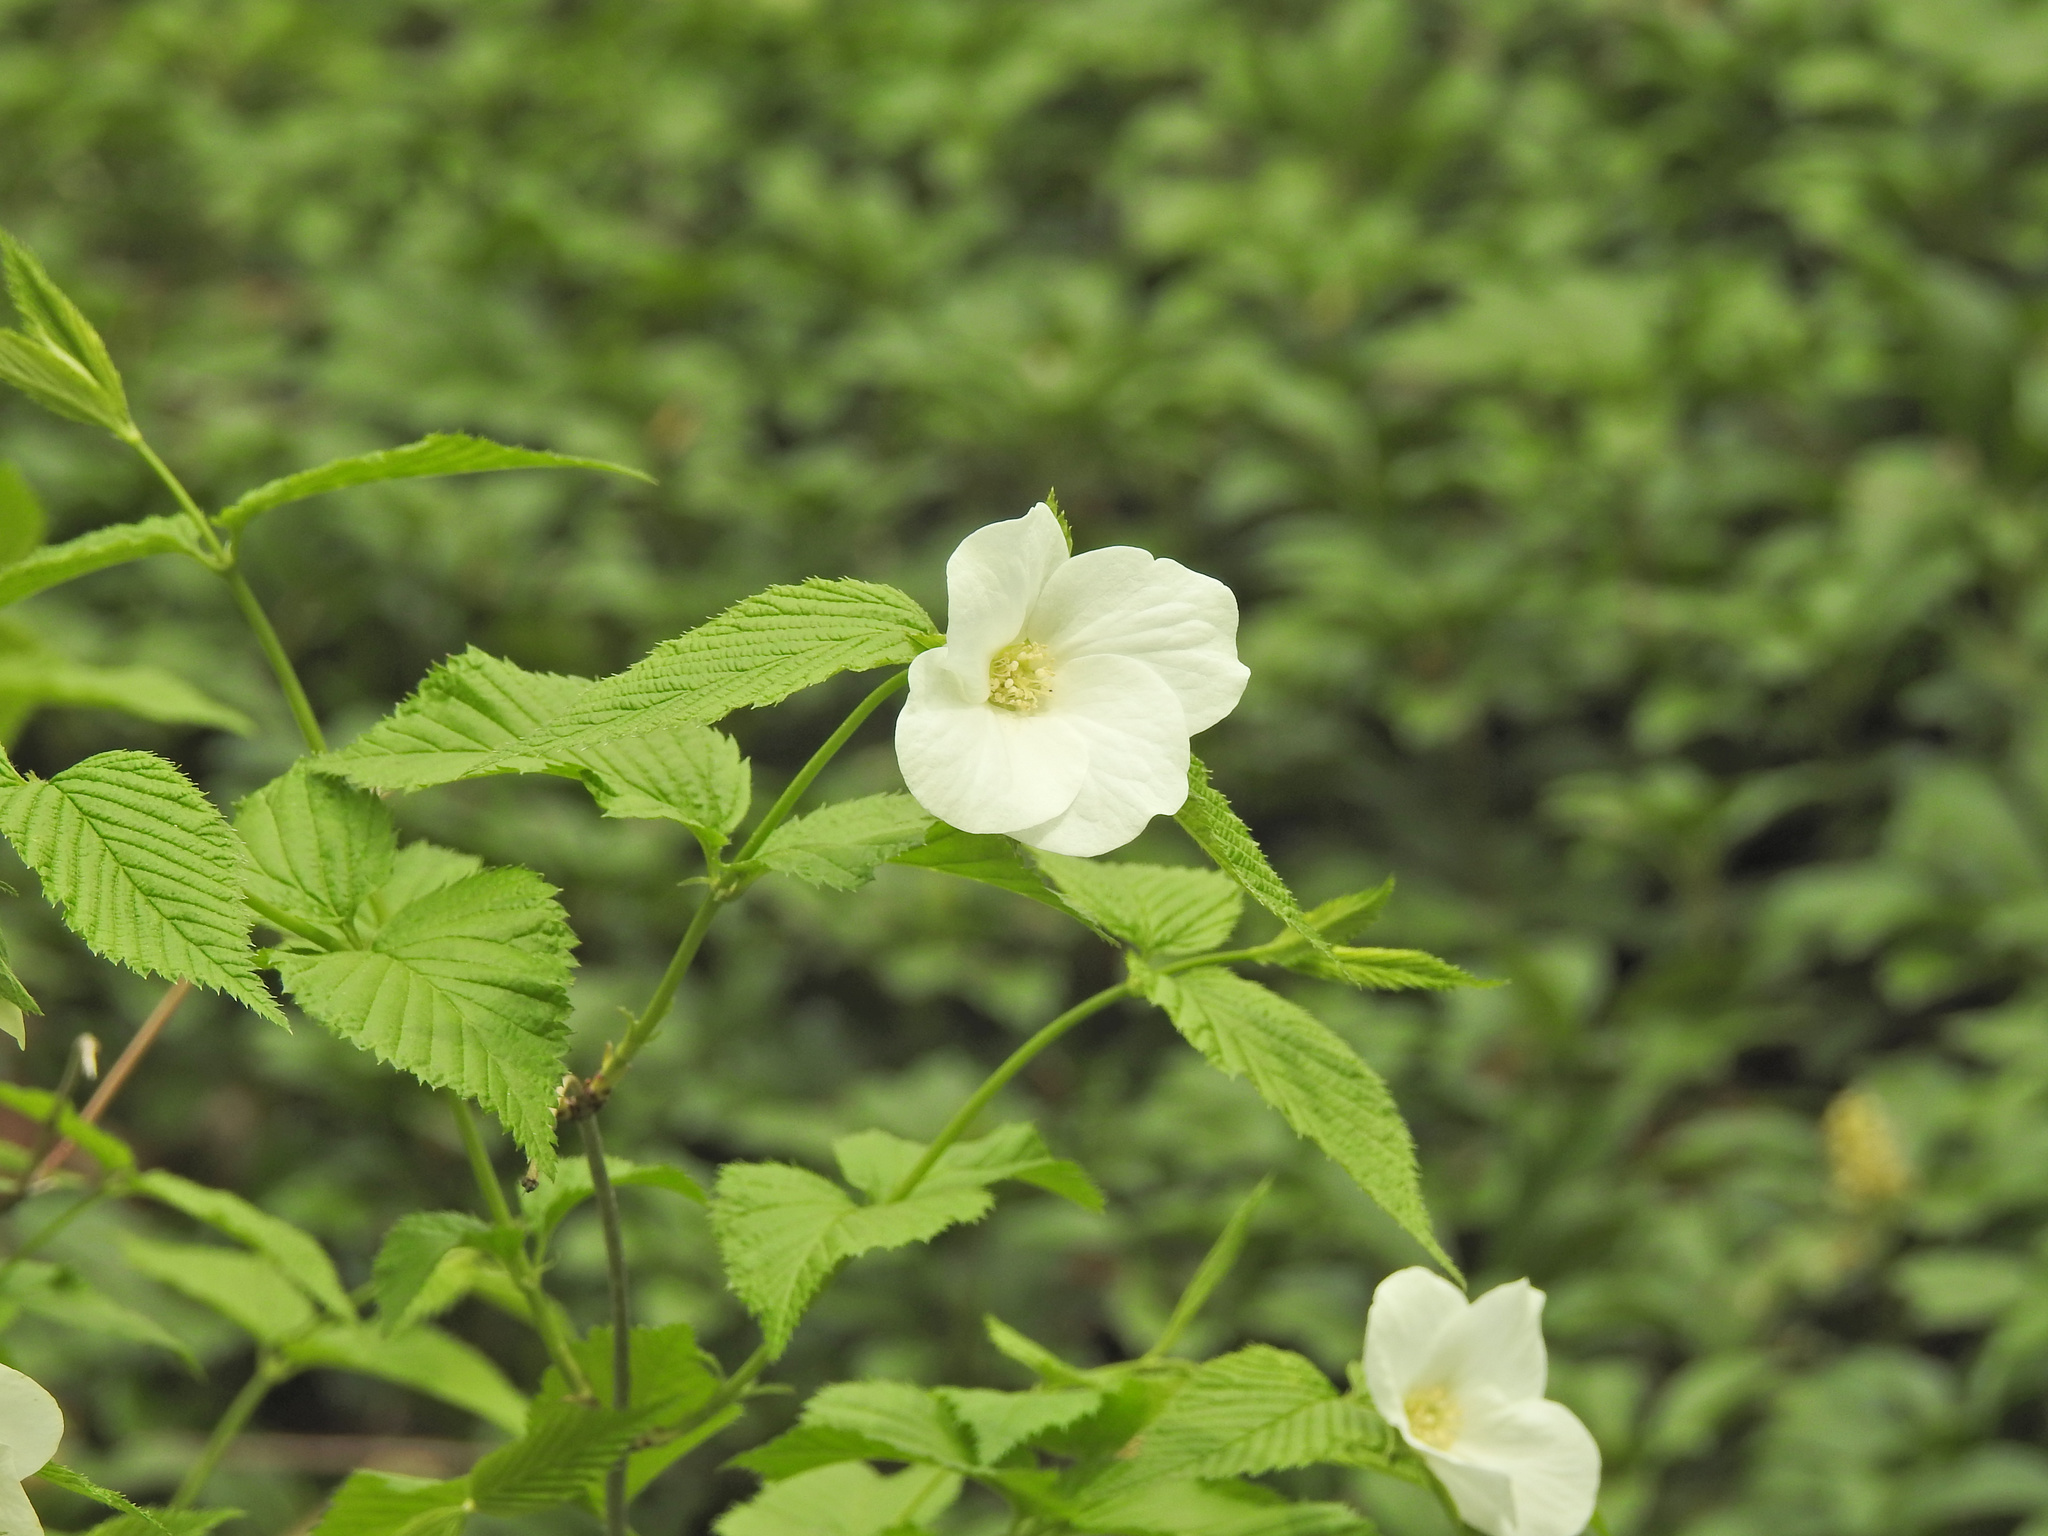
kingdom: Plantae
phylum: Tracheophyta
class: Magnoliopsida
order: Rosales
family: Rosaceae
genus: Rhodotypos
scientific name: Rhodotypos scandens
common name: Jetbead
